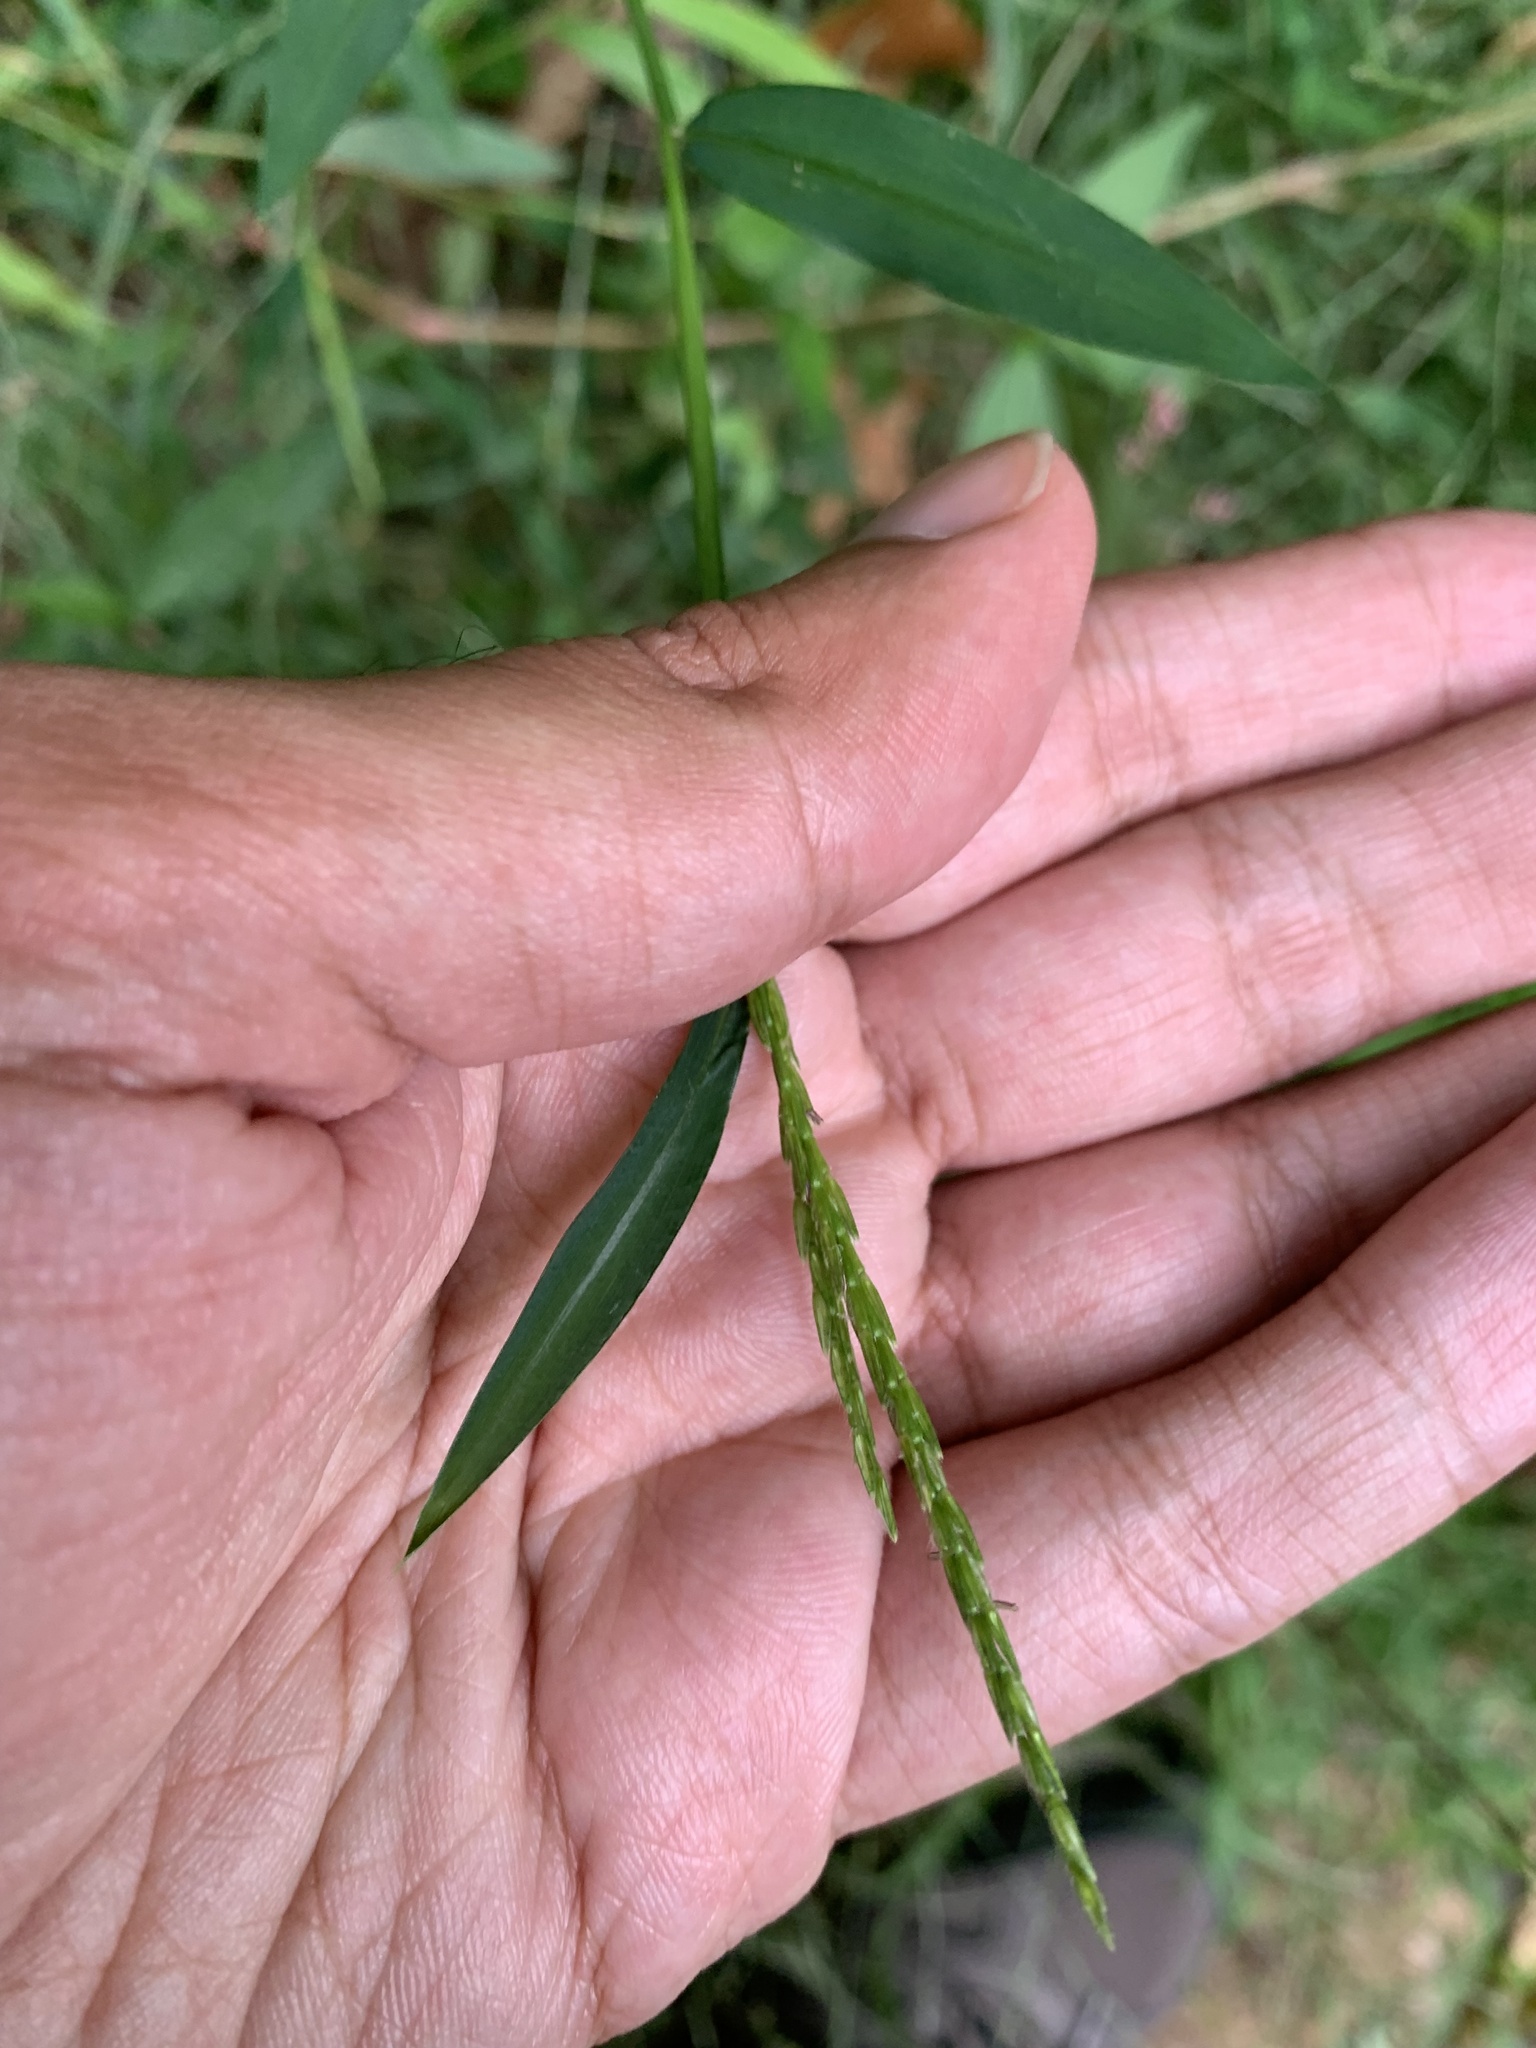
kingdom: Plantae
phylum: Tracheophyta
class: Liliopsida
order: Poales
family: Poaceae
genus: Microstegium
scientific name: Microstegium vimineum
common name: Japanese stiltgrass
